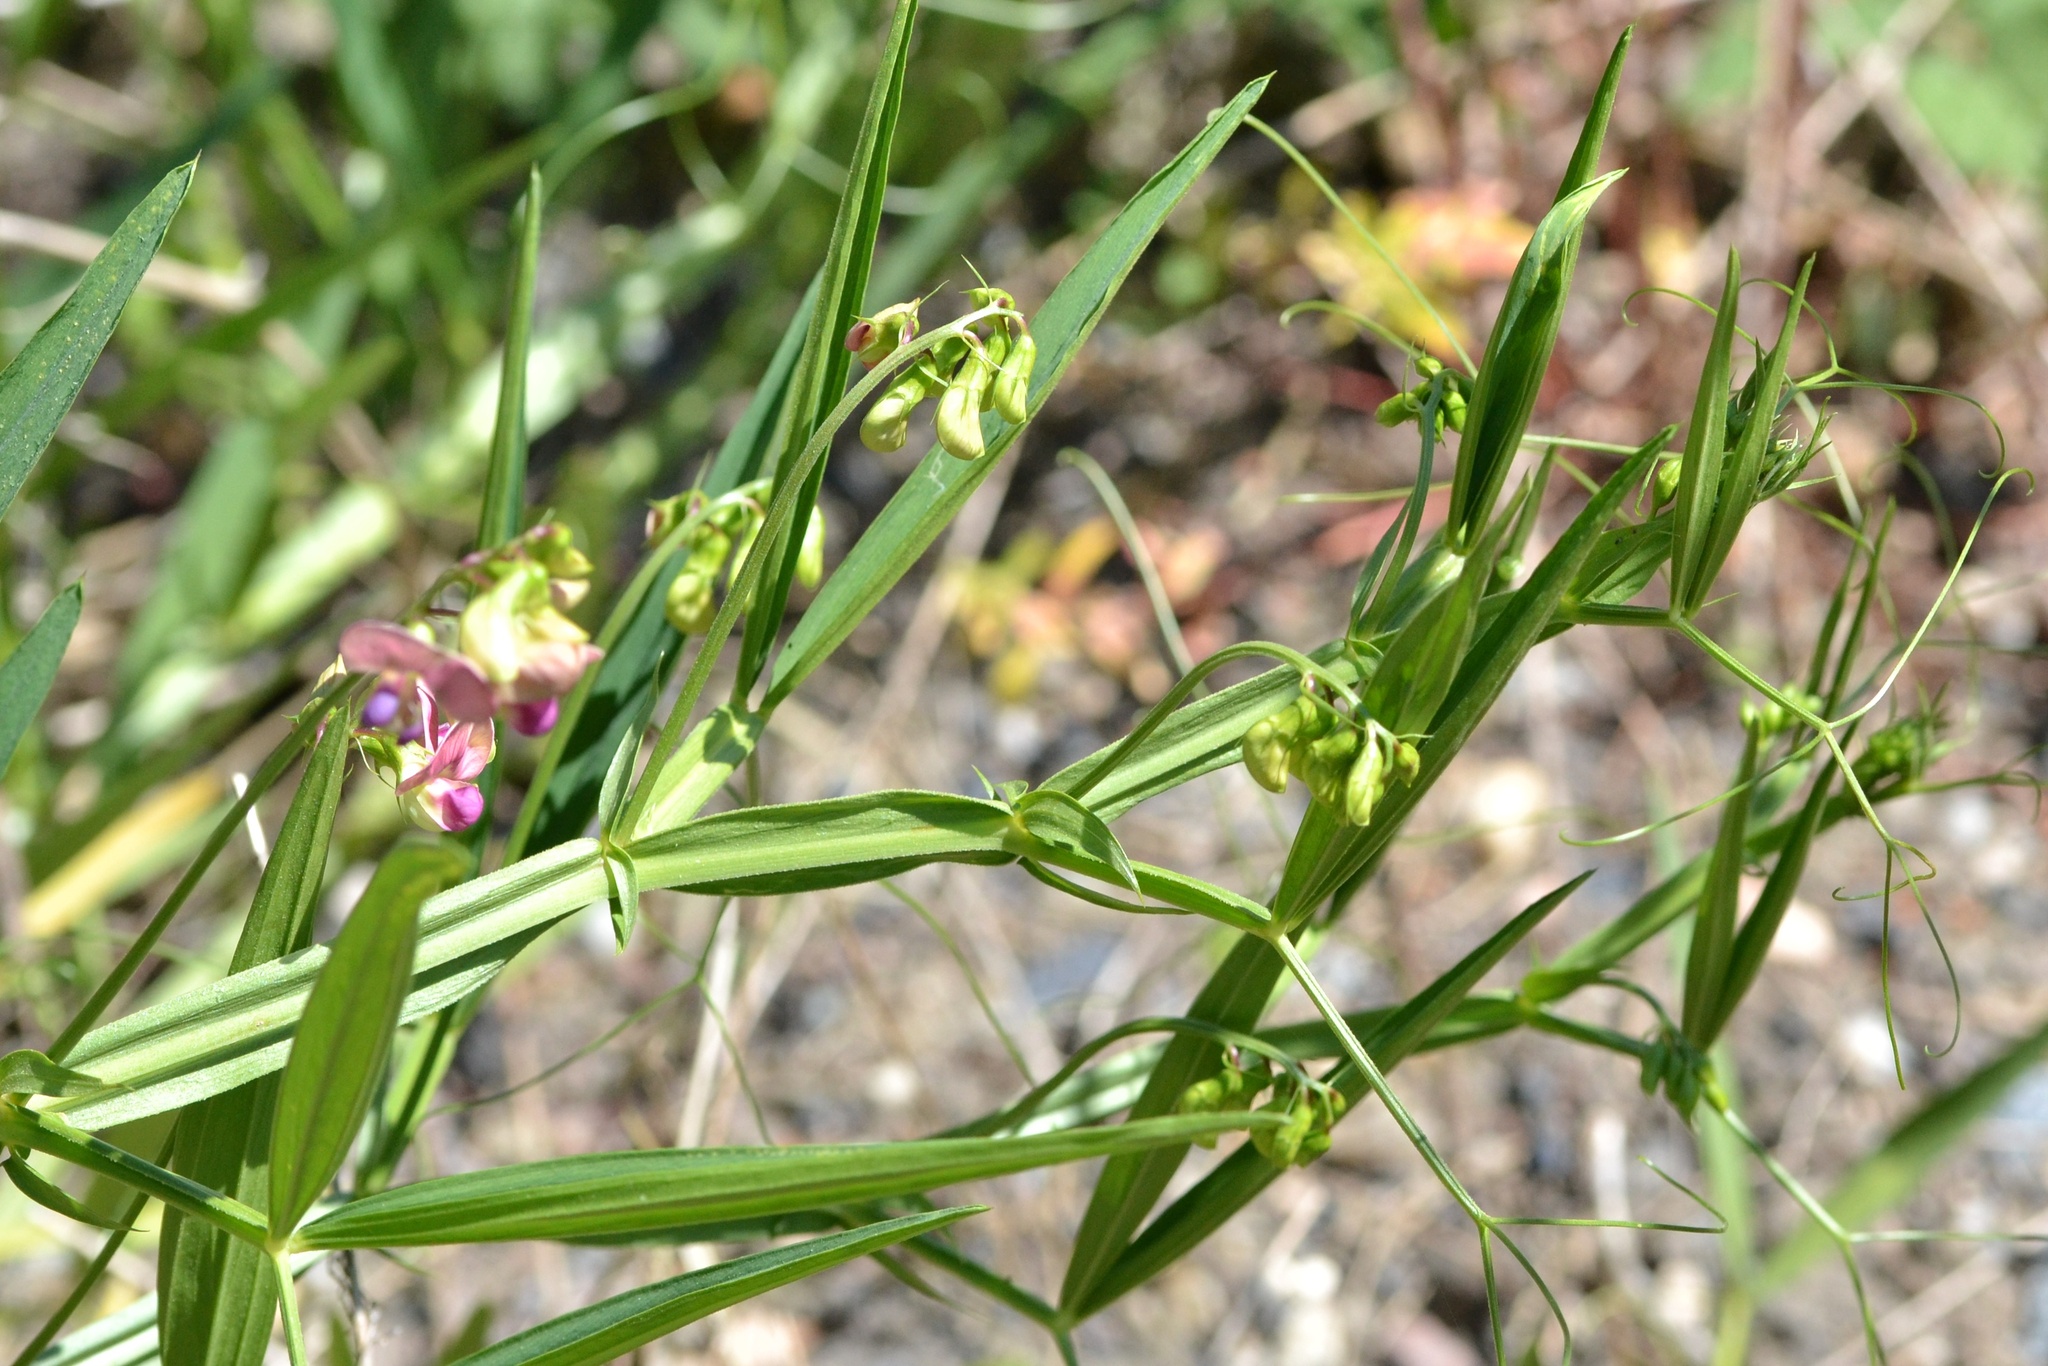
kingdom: Plantae
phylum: Tracheophyta
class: Magnoliopsida
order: Fabales
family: Fabaceae
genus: Lathyrus
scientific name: Lathyrus sylvestris
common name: Flat pea
